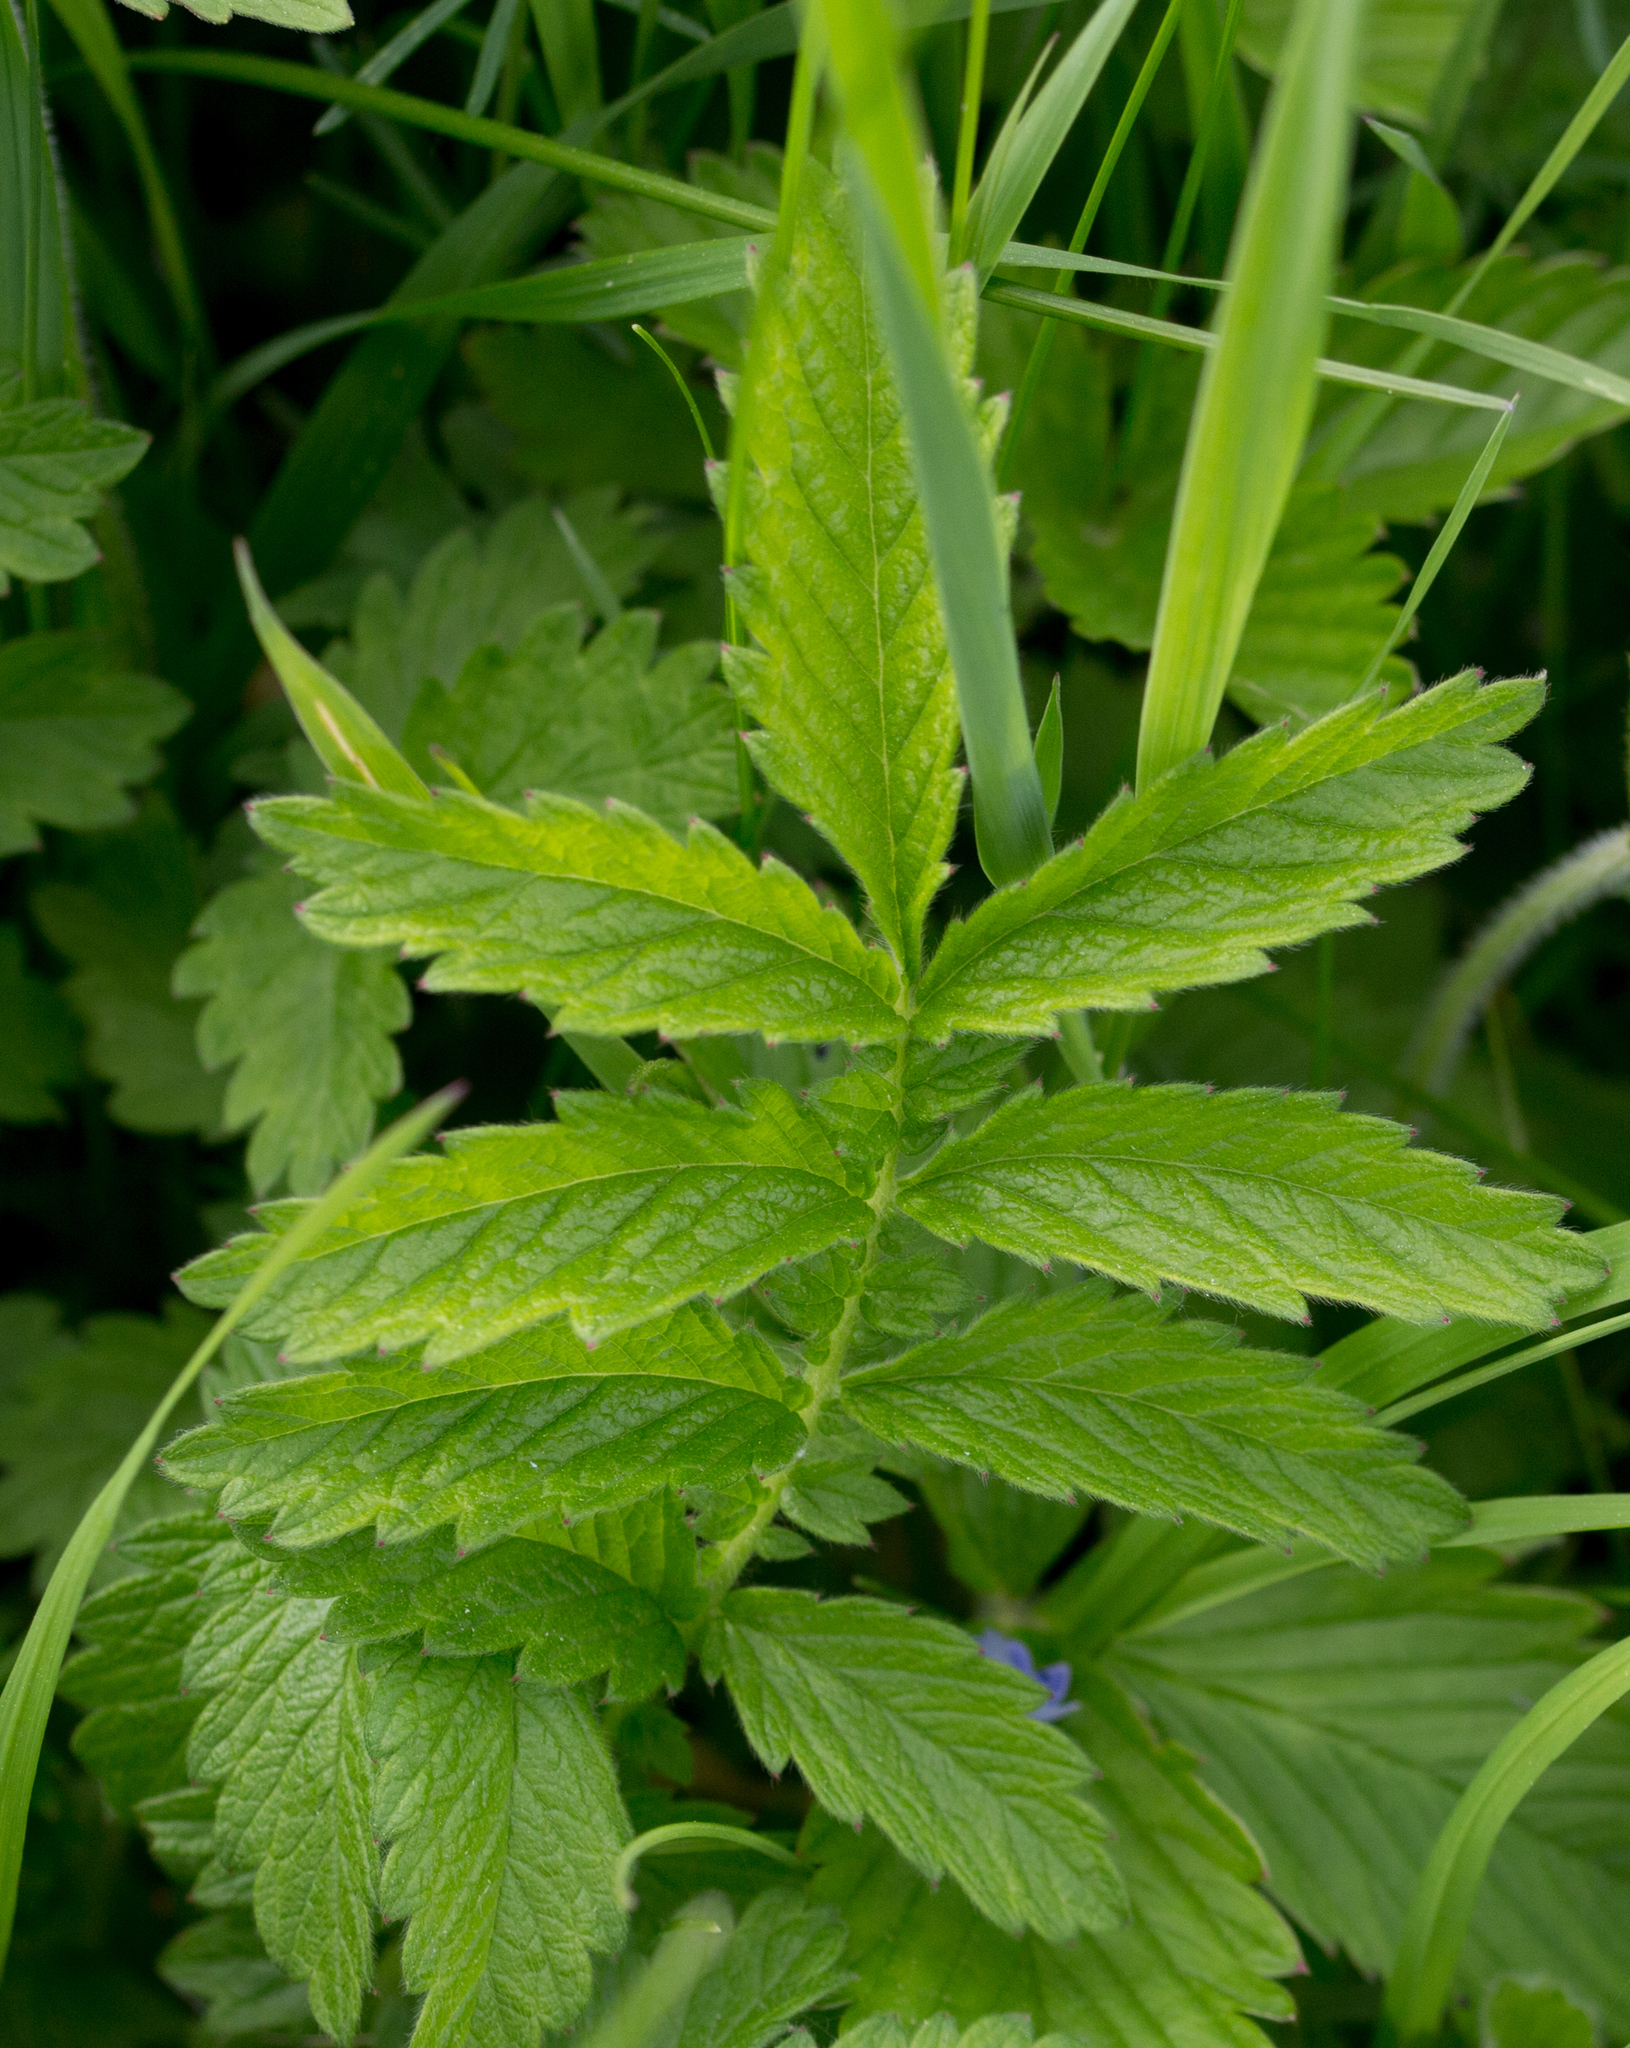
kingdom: Plantae
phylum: Tracheophyta
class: Magnoliopsida
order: Rosales
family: Rosaceae
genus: Agrimonia
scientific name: Agrimonia eupatoria
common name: Agrimony
